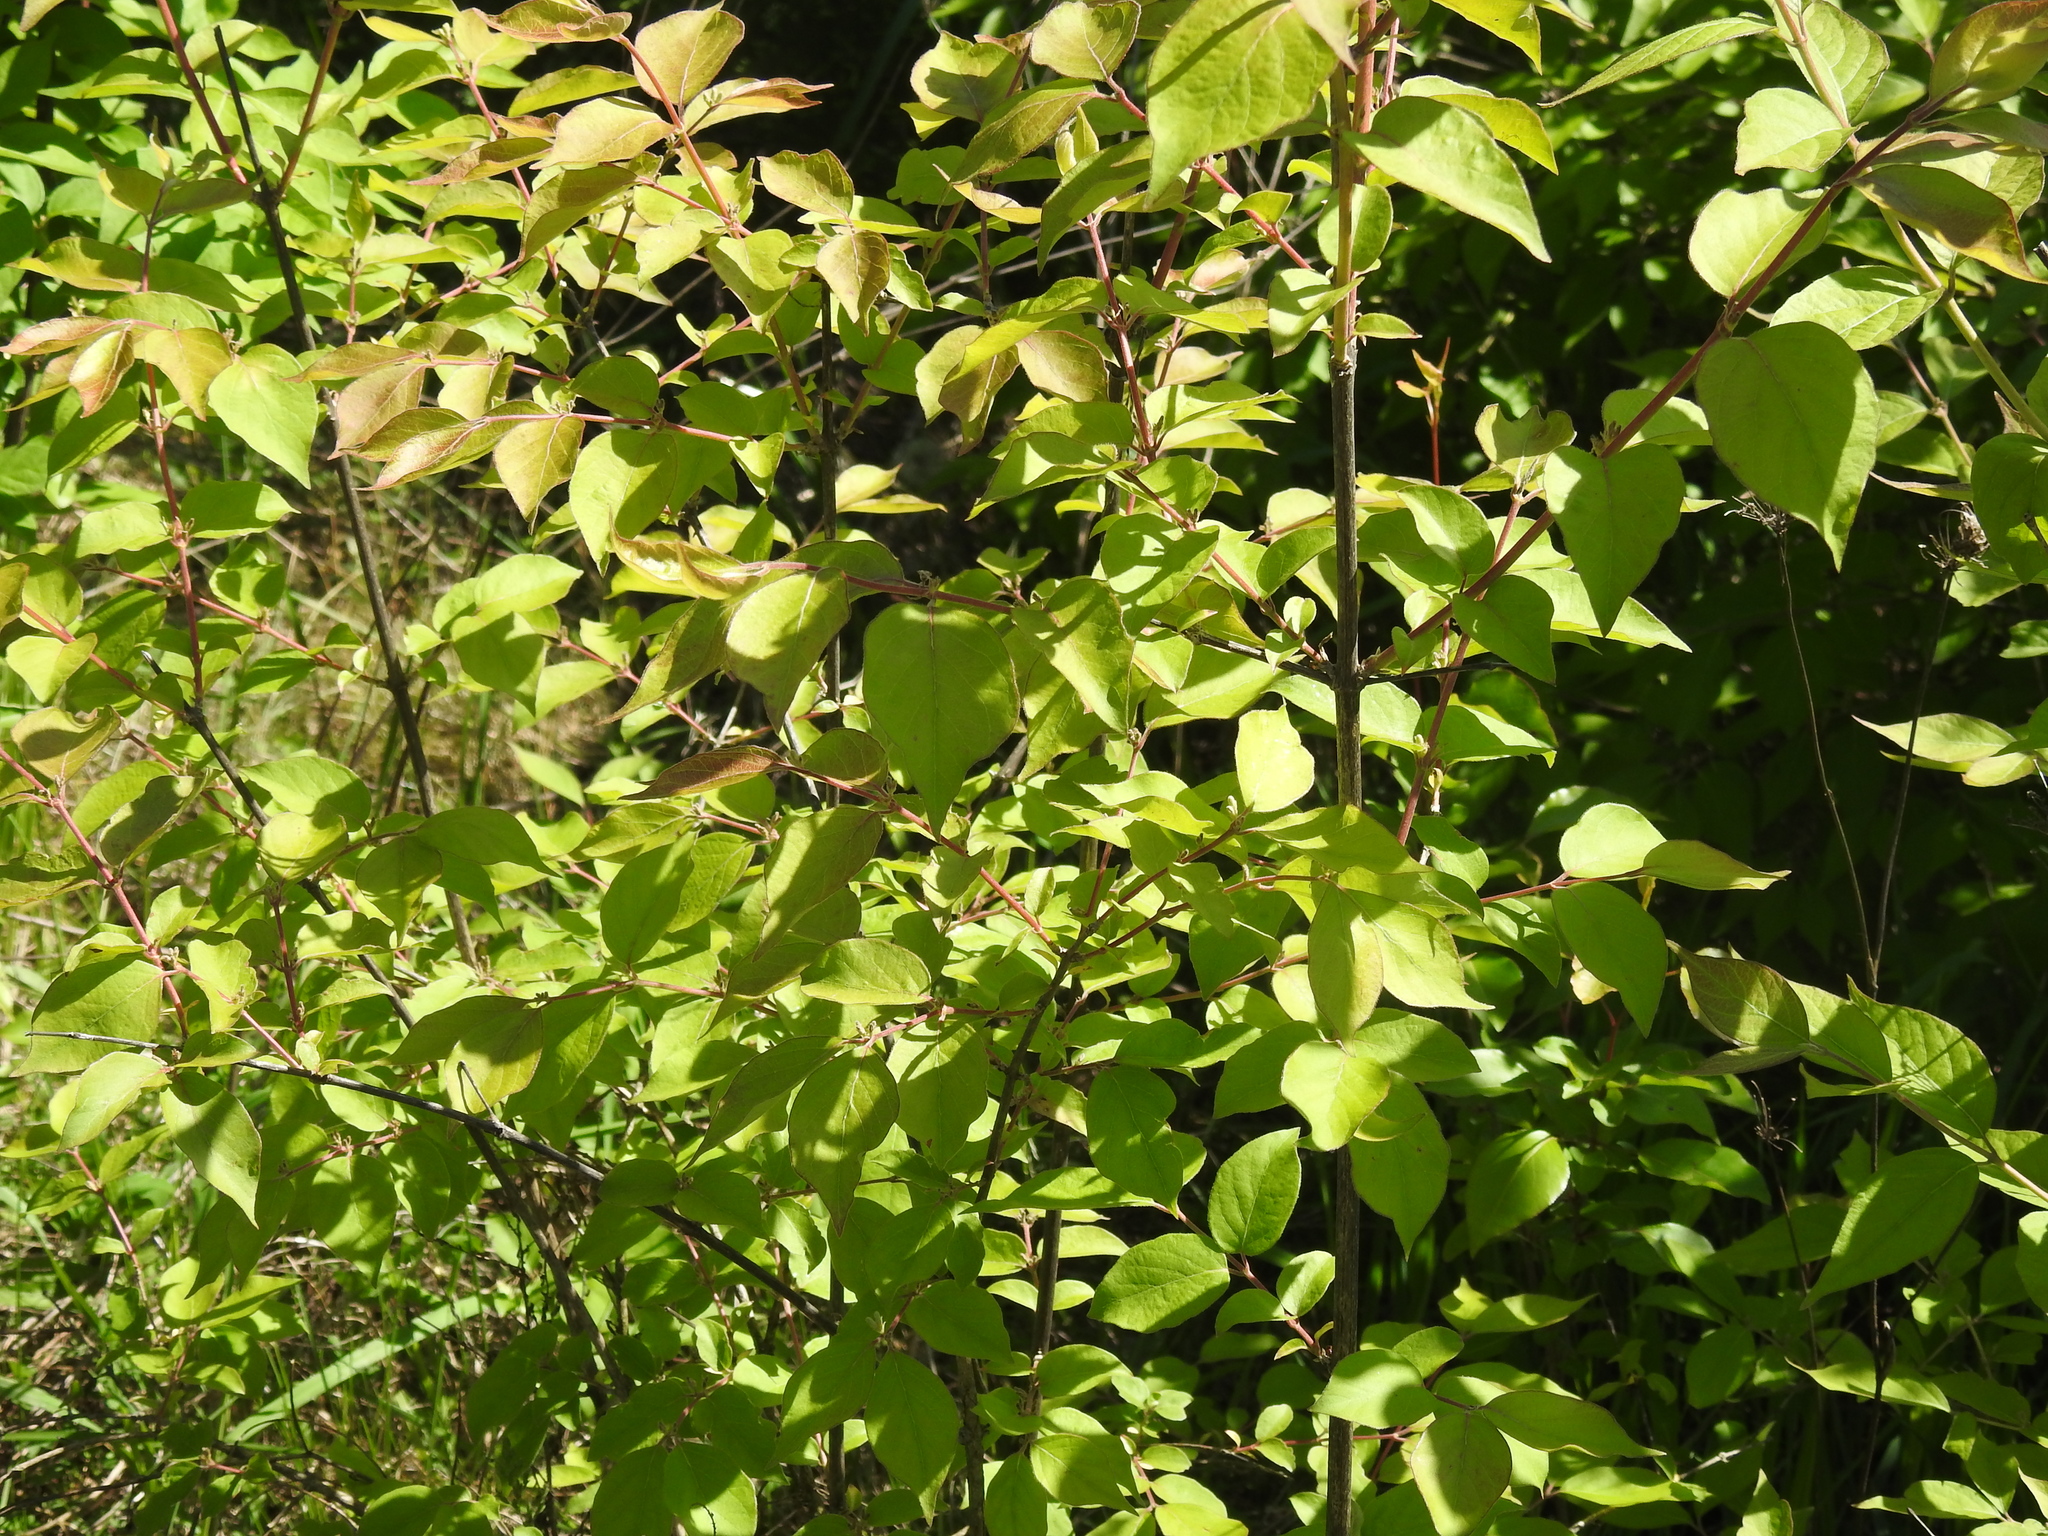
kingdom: Plantae
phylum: Tracheophyta
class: Magnoliopsida
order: Dipsacales
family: Caprifoliaceae
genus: Lonicera
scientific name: Lonicera maackii
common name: Amur honeysuckle
